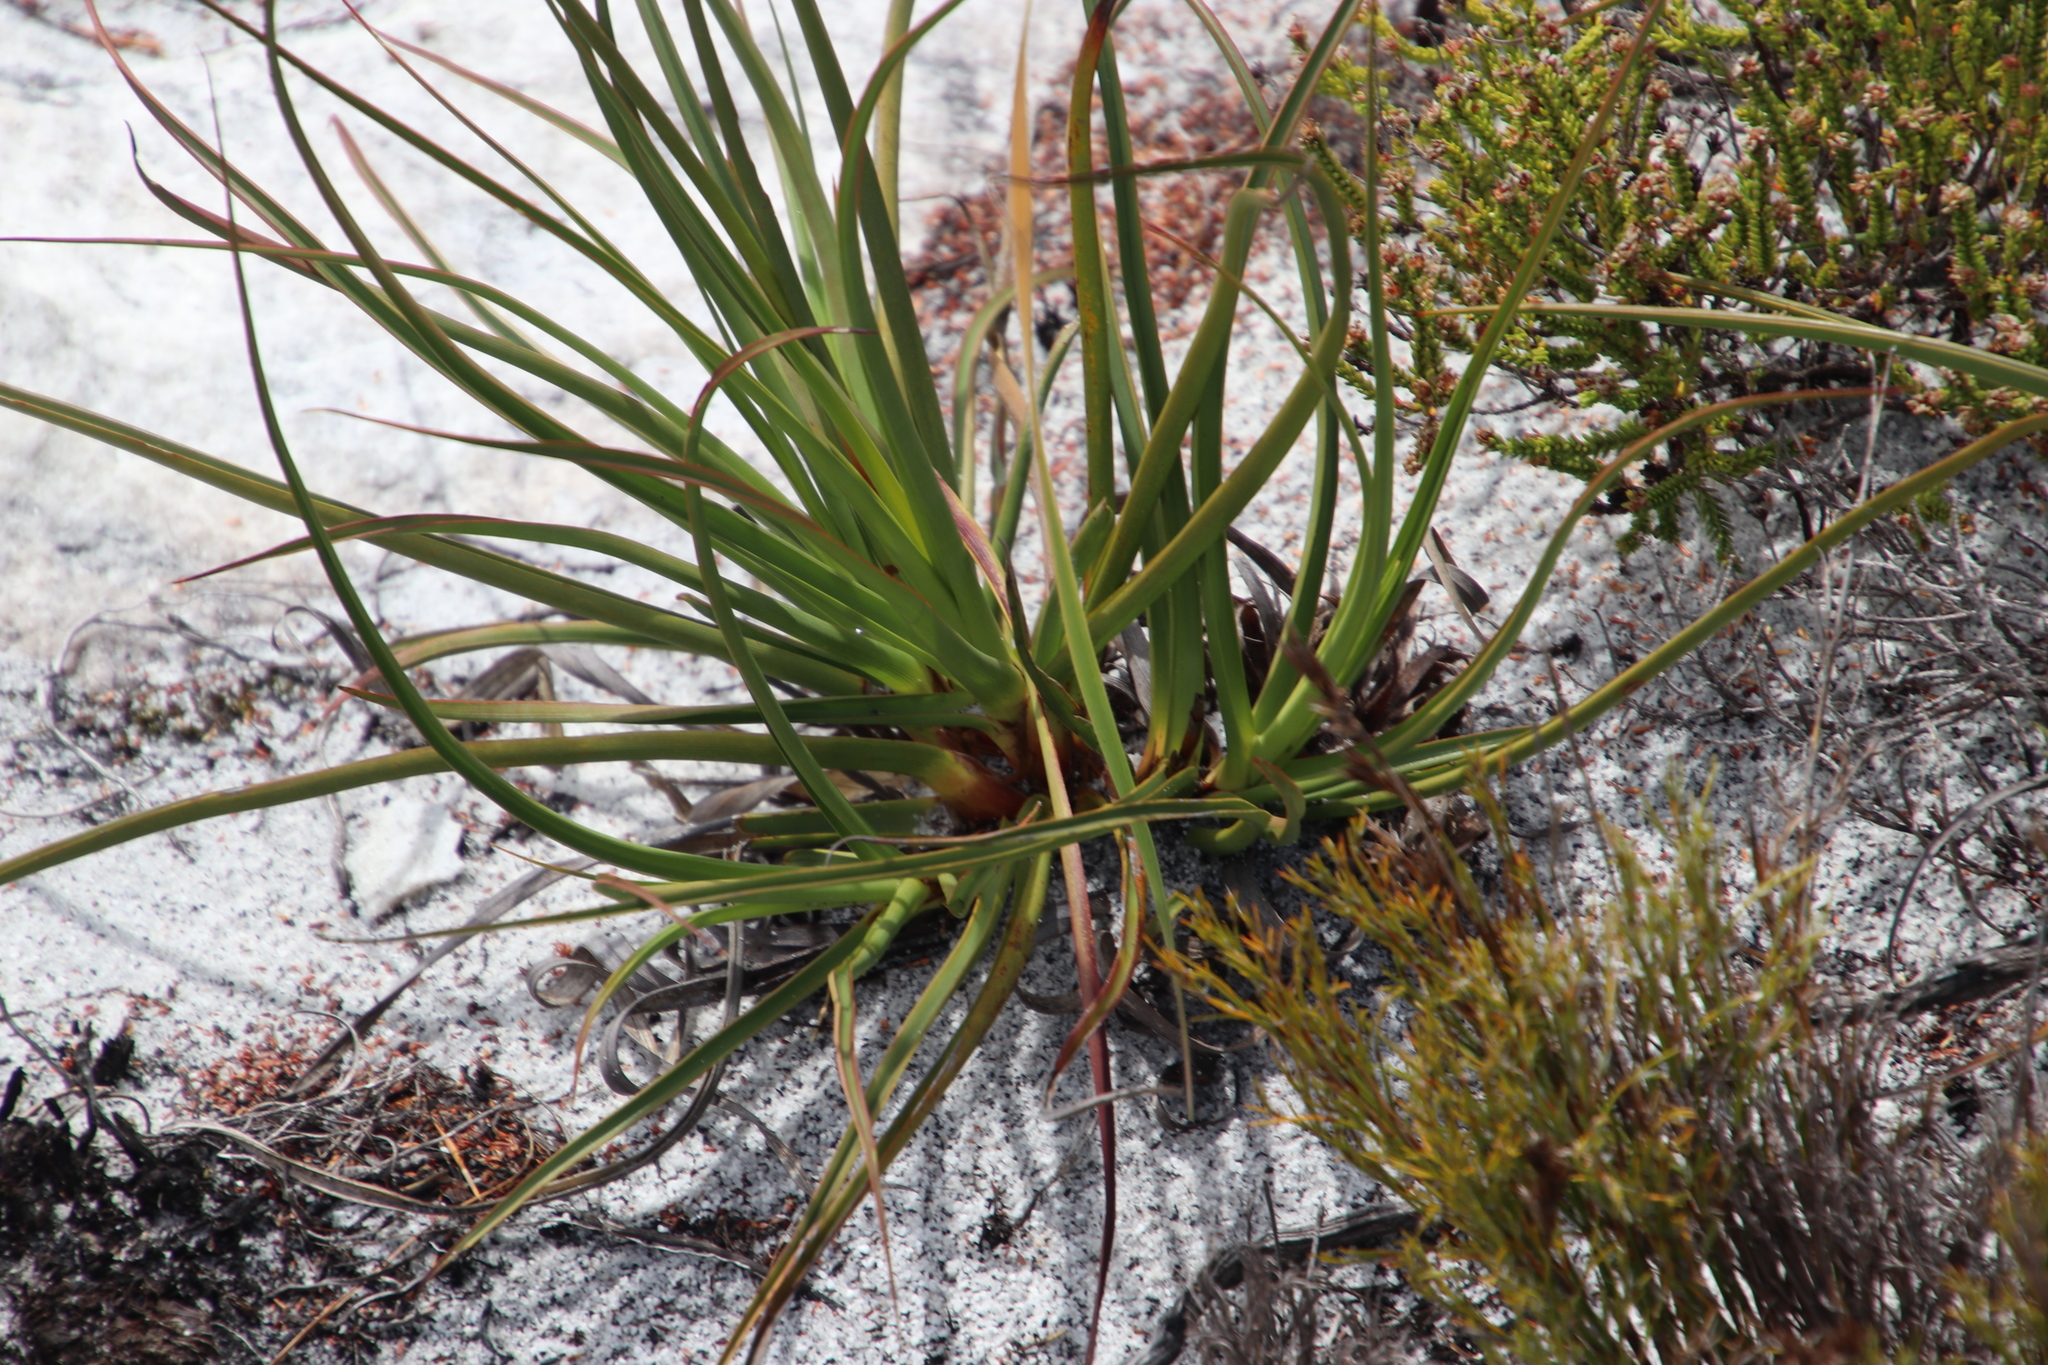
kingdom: Plantae
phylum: Tracheophyta
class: Liliopsida
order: Poales
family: Cyperaceae
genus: Tetraria
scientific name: Tetraria eximia
